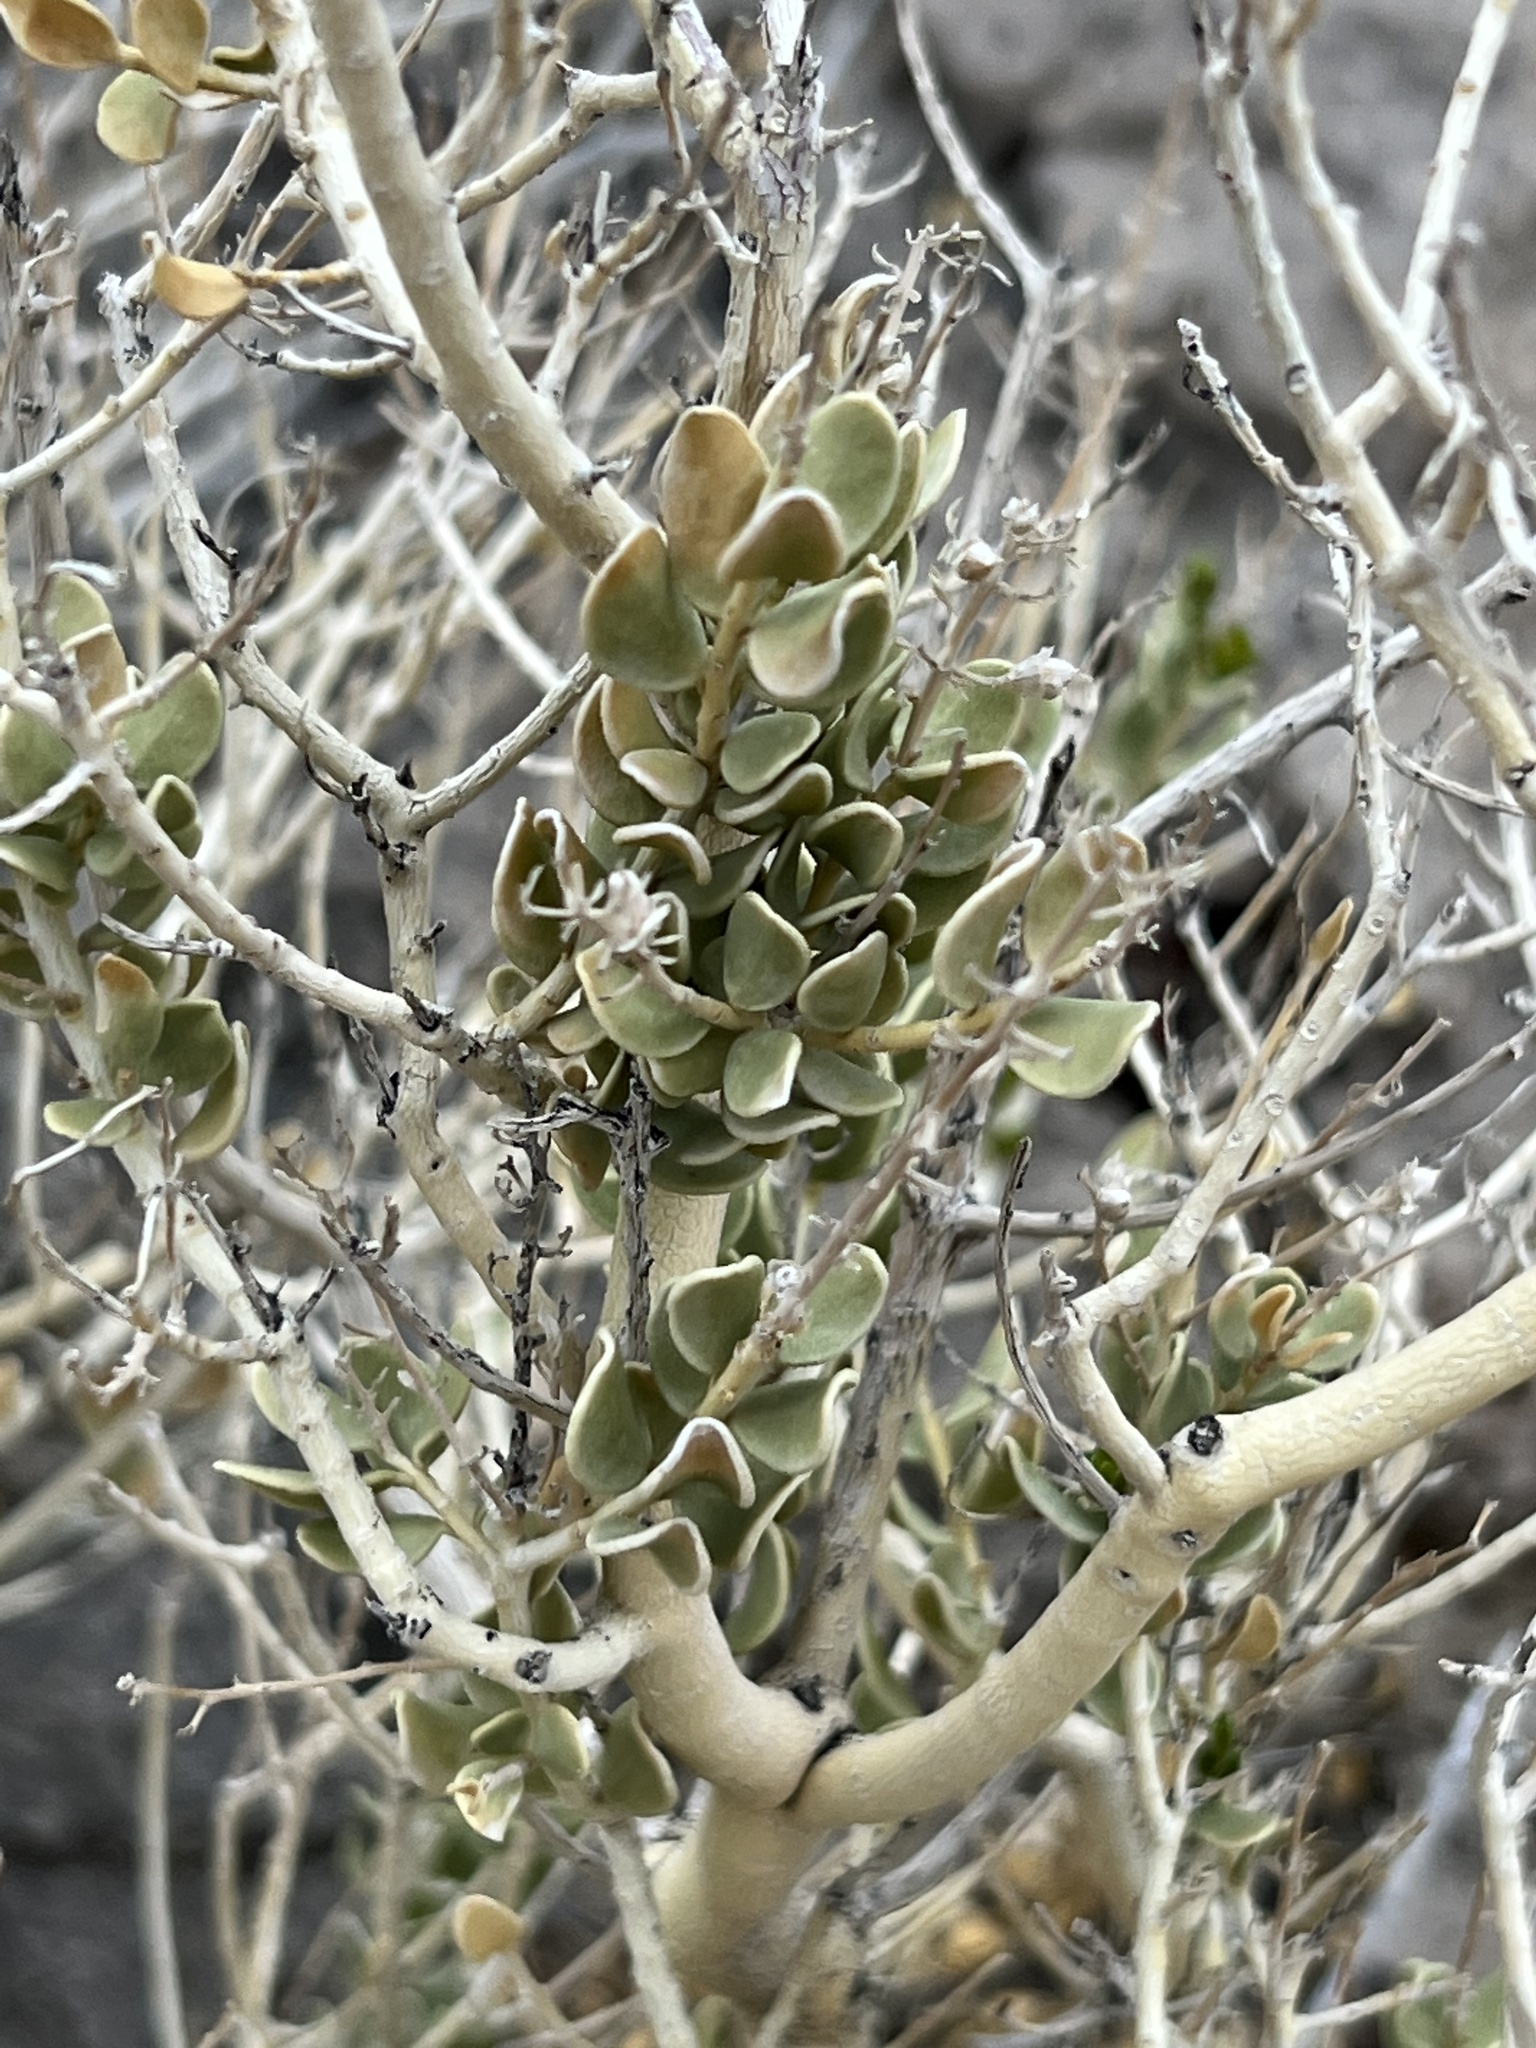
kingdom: Plantae
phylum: Tracheophyta
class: Magnoliopsida
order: Celastrales
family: Celastraceae
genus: Mortonia
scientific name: Mortonia utahensis
